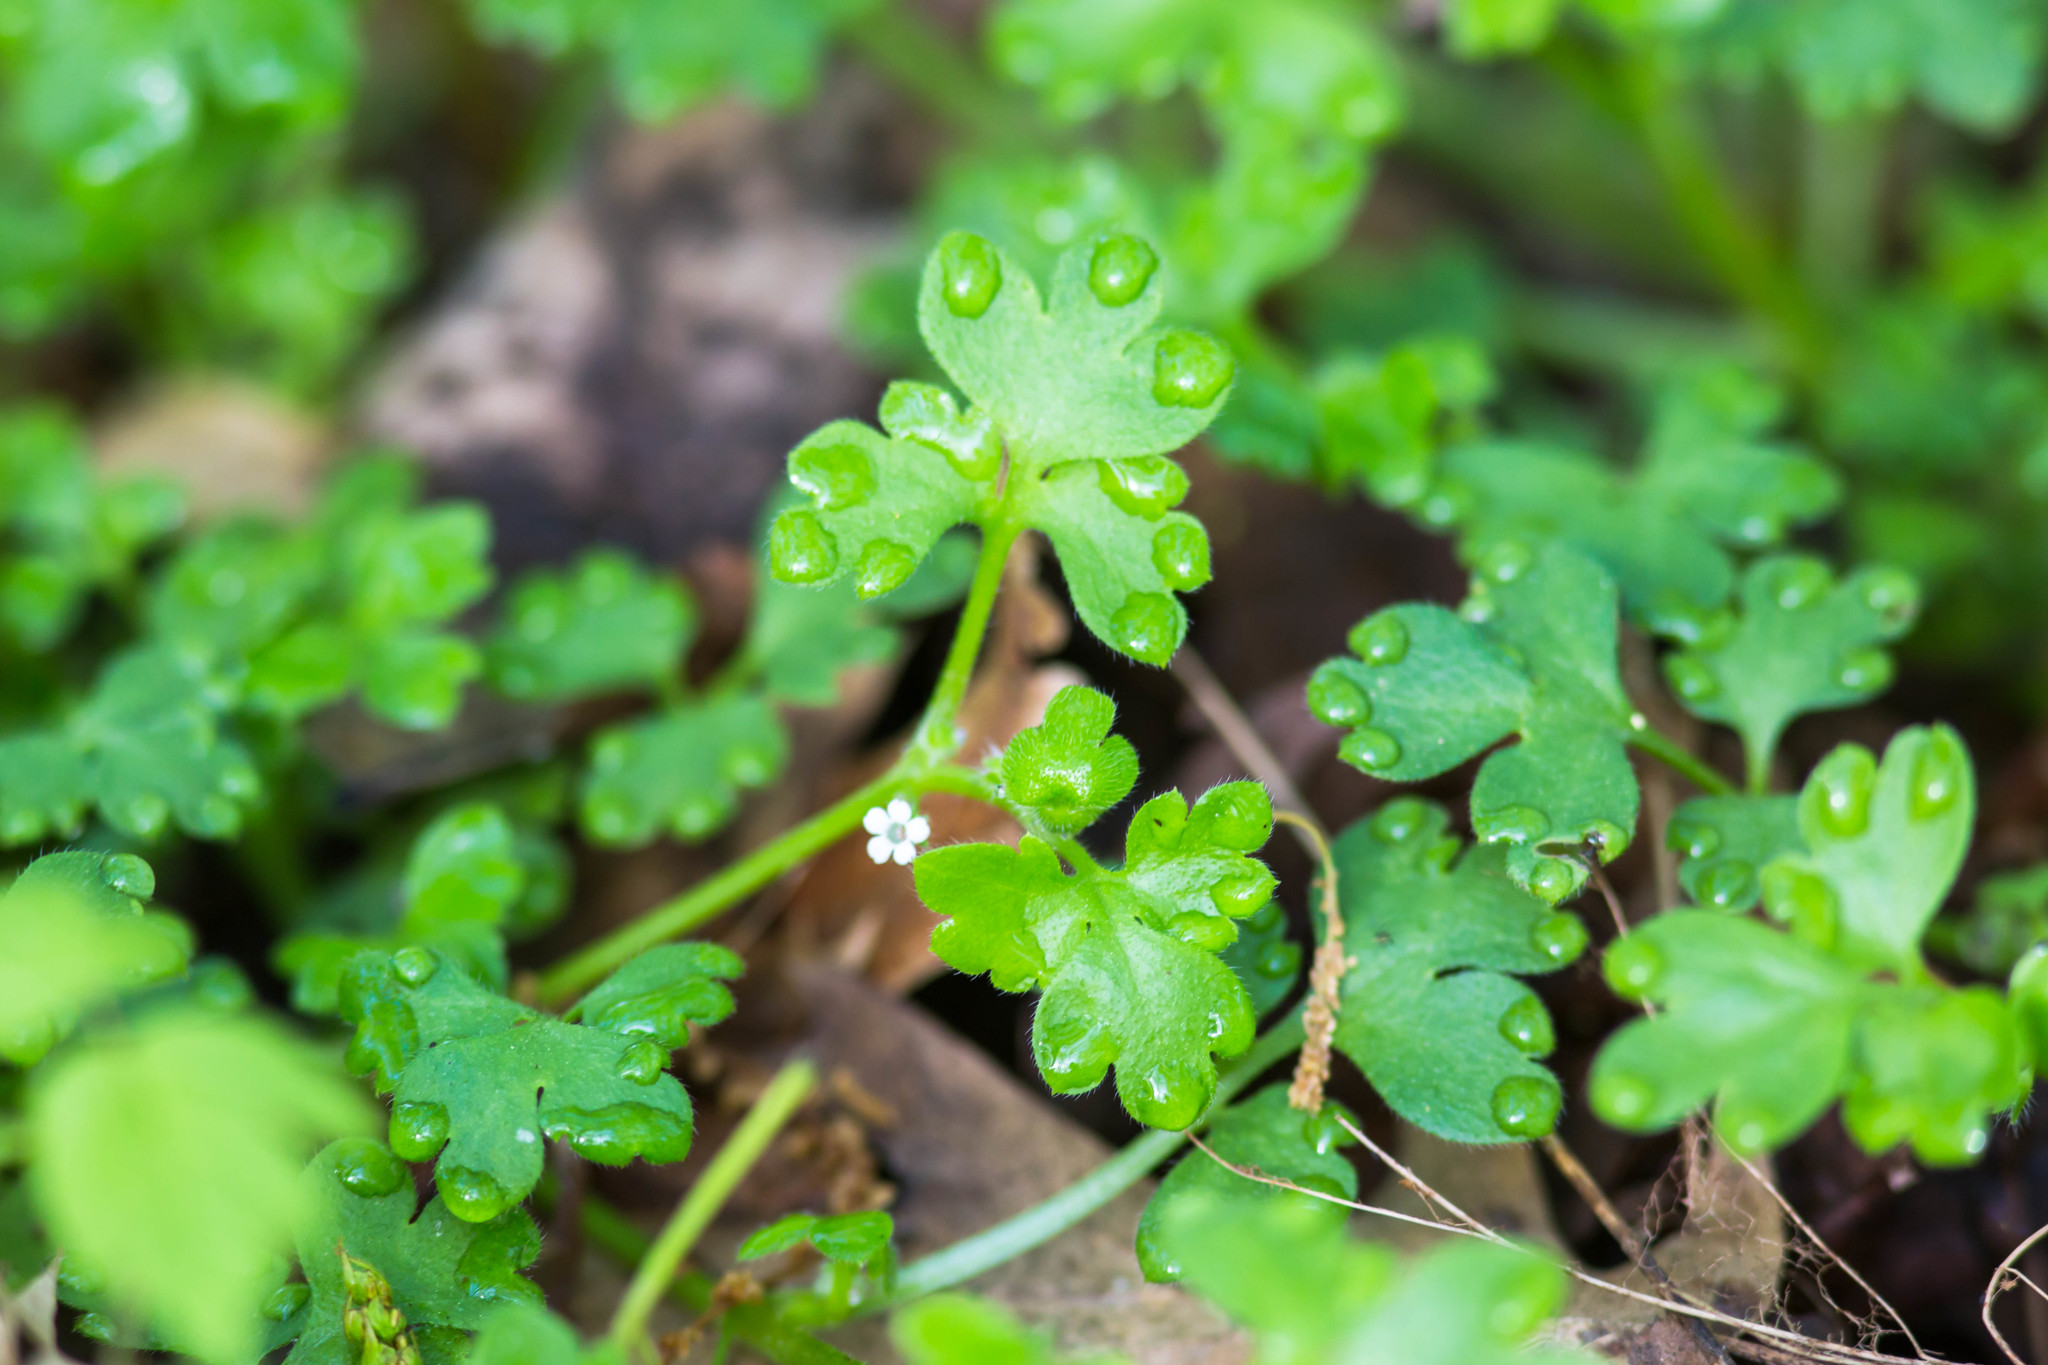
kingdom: Plantae
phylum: Tracheophyta
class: Magnoliopsida
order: Boraginales
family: Hydrophyllaceae
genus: Nemophila
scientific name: Nemophila aphylla
